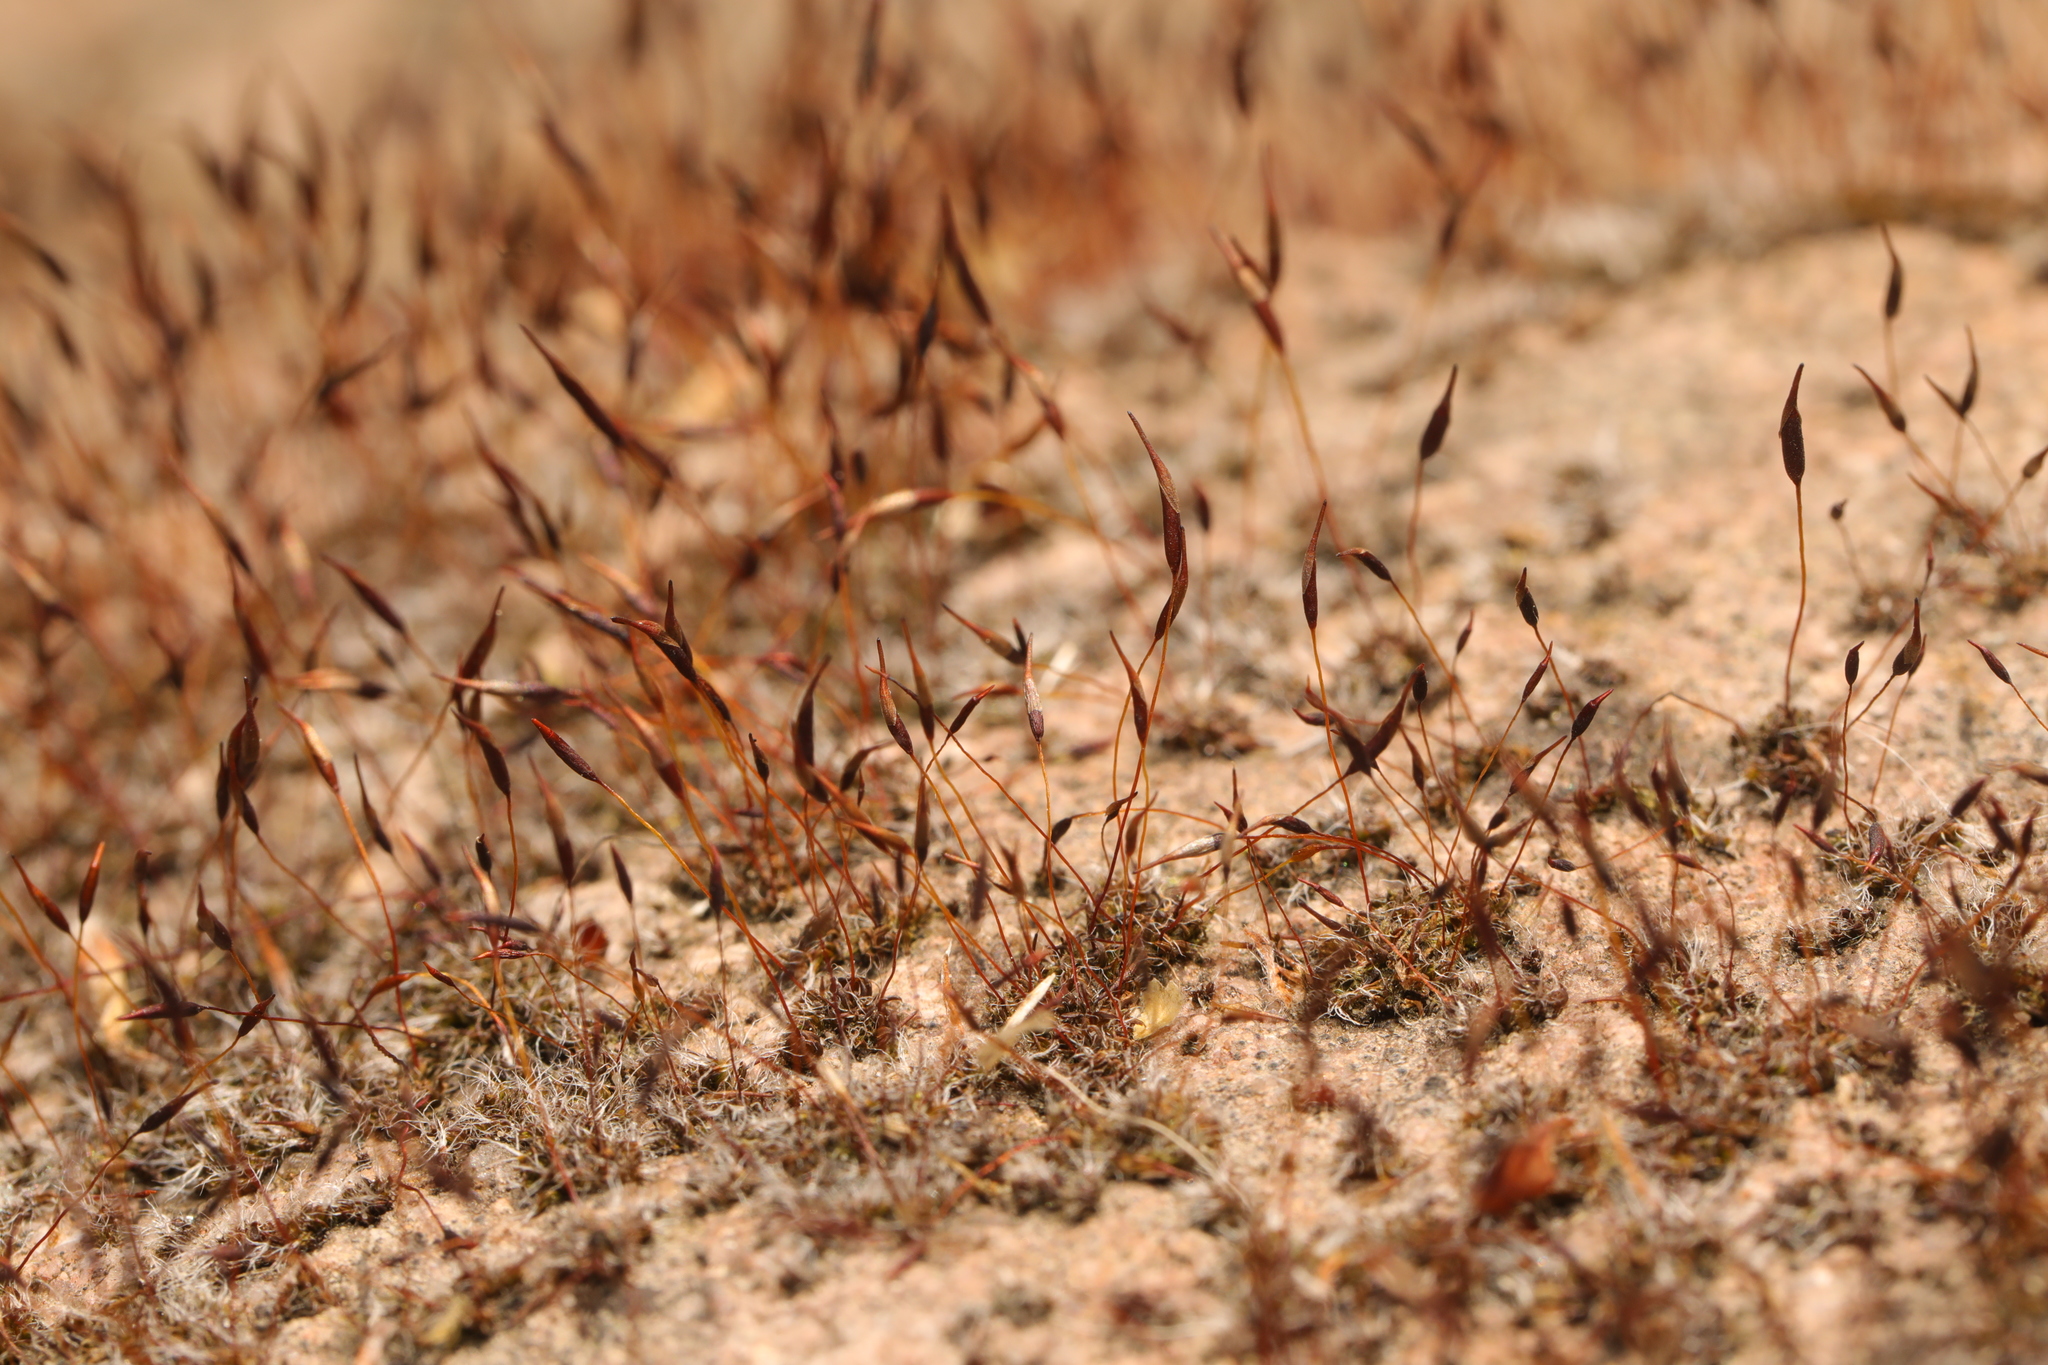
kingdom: Plantae
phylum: Bryophyta
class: Bryopsida
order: Pottiales
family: Pottiaceae
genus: Tortula
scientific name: Tortula muralis
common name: Wall screw-moss
